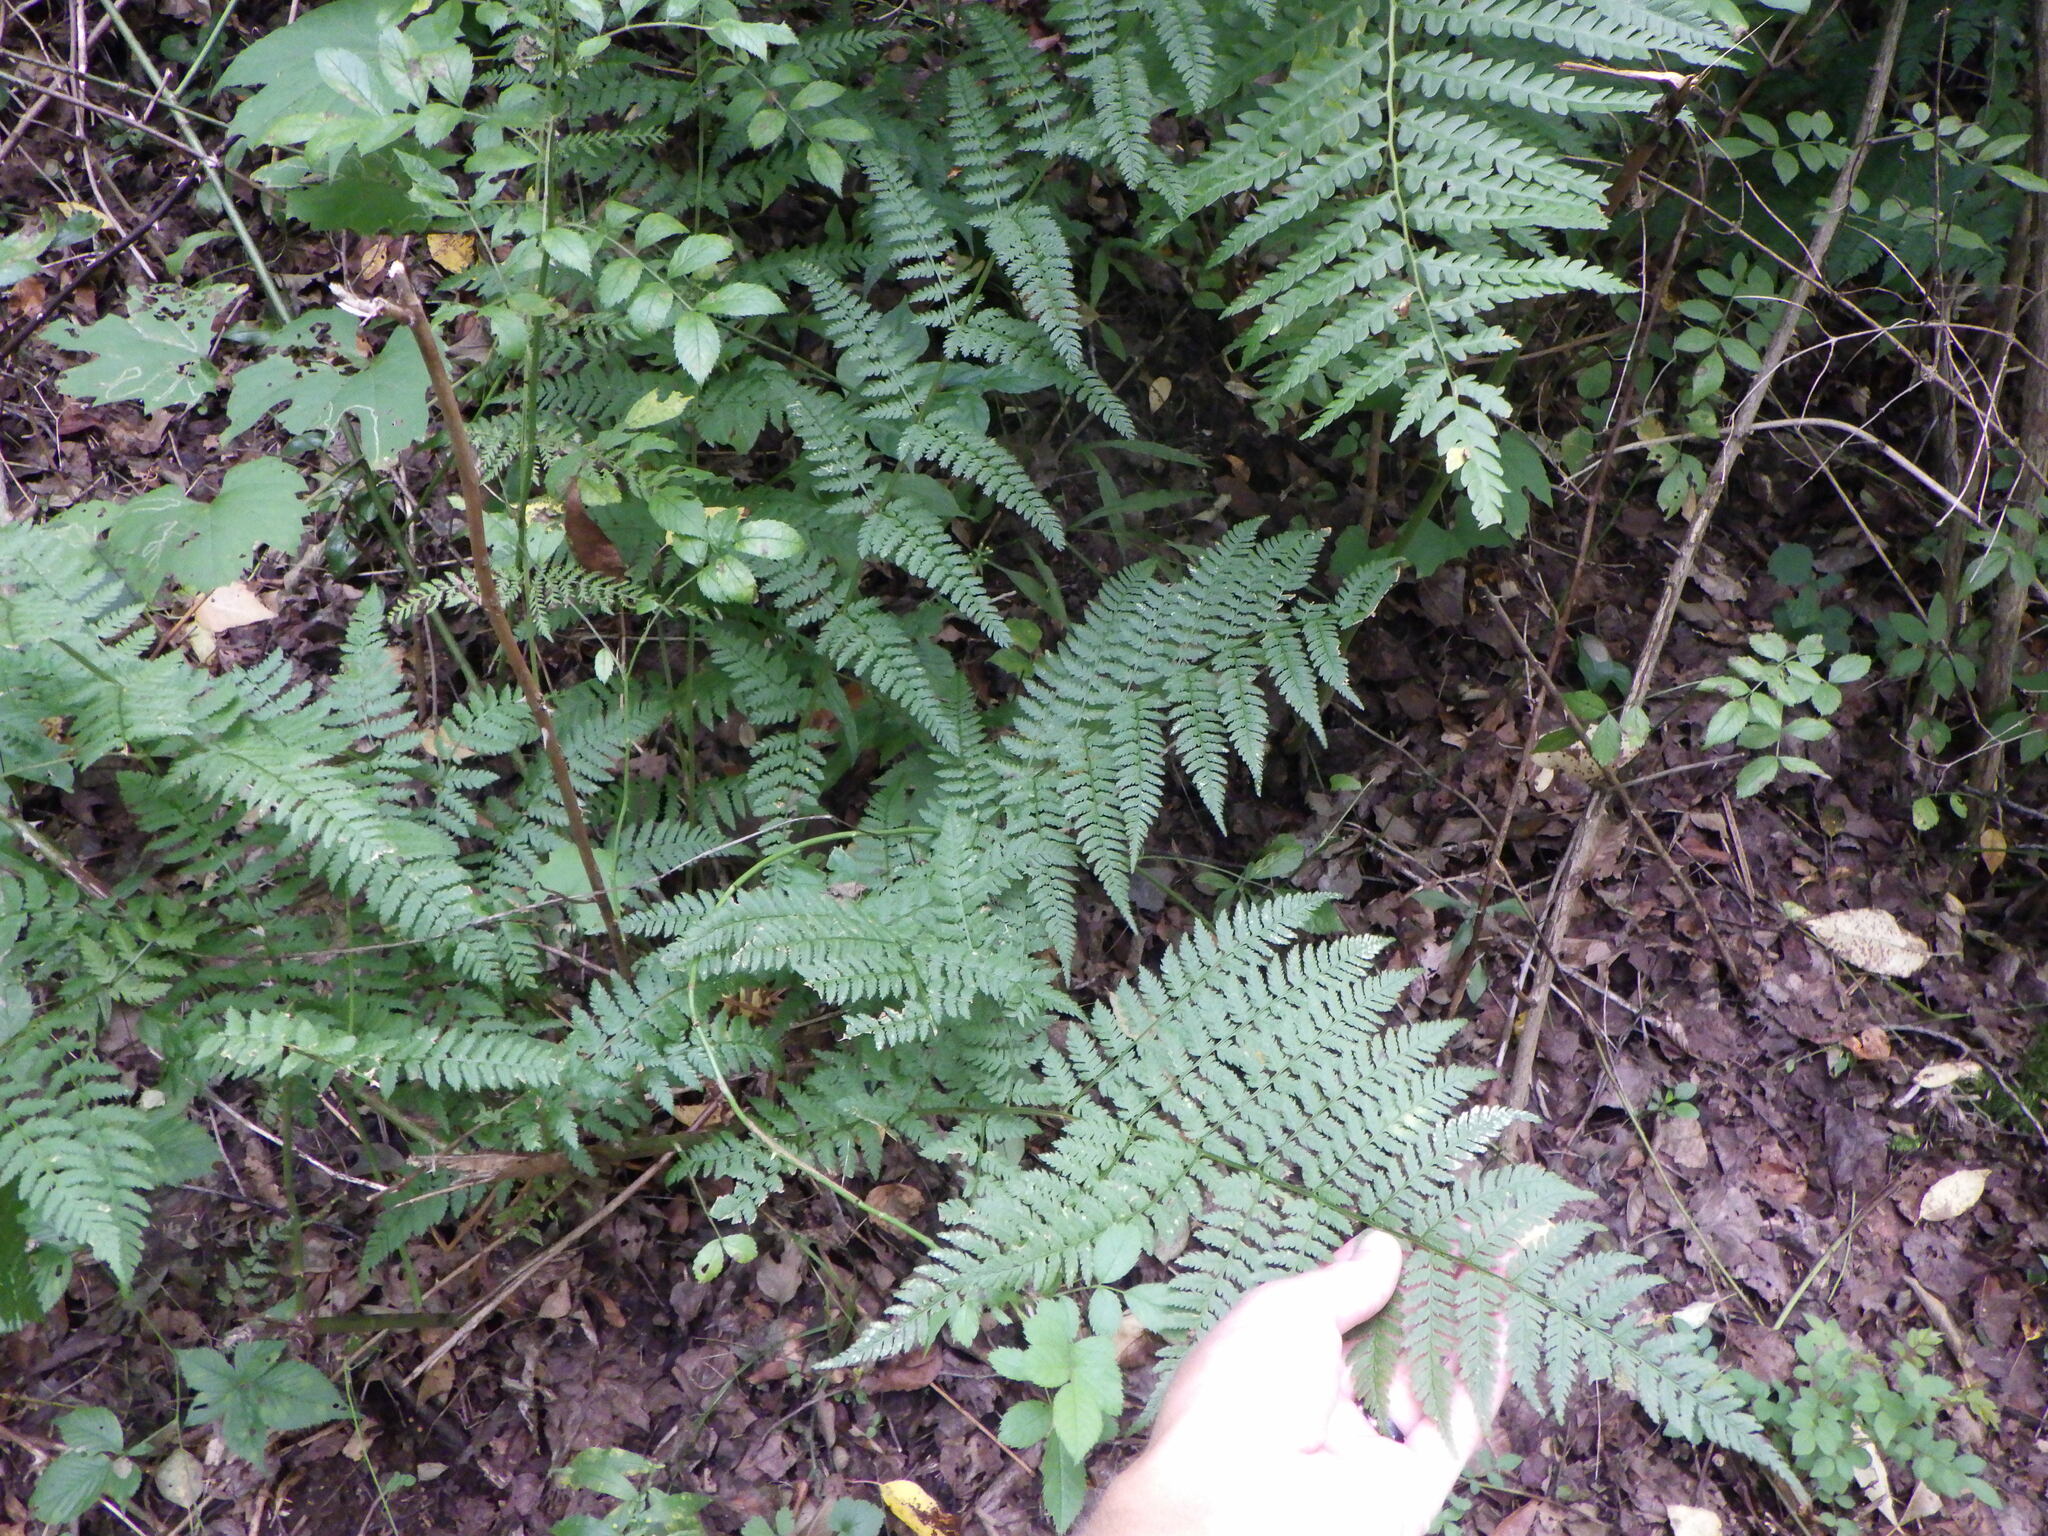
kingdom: Plantae
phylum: Tracheophyta
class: Polypodiopsida
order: Polypodiales
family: Dryopteridaceae
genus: Dryopteris
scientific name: Dryopteris intermedia
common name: Evergreen wood fern
